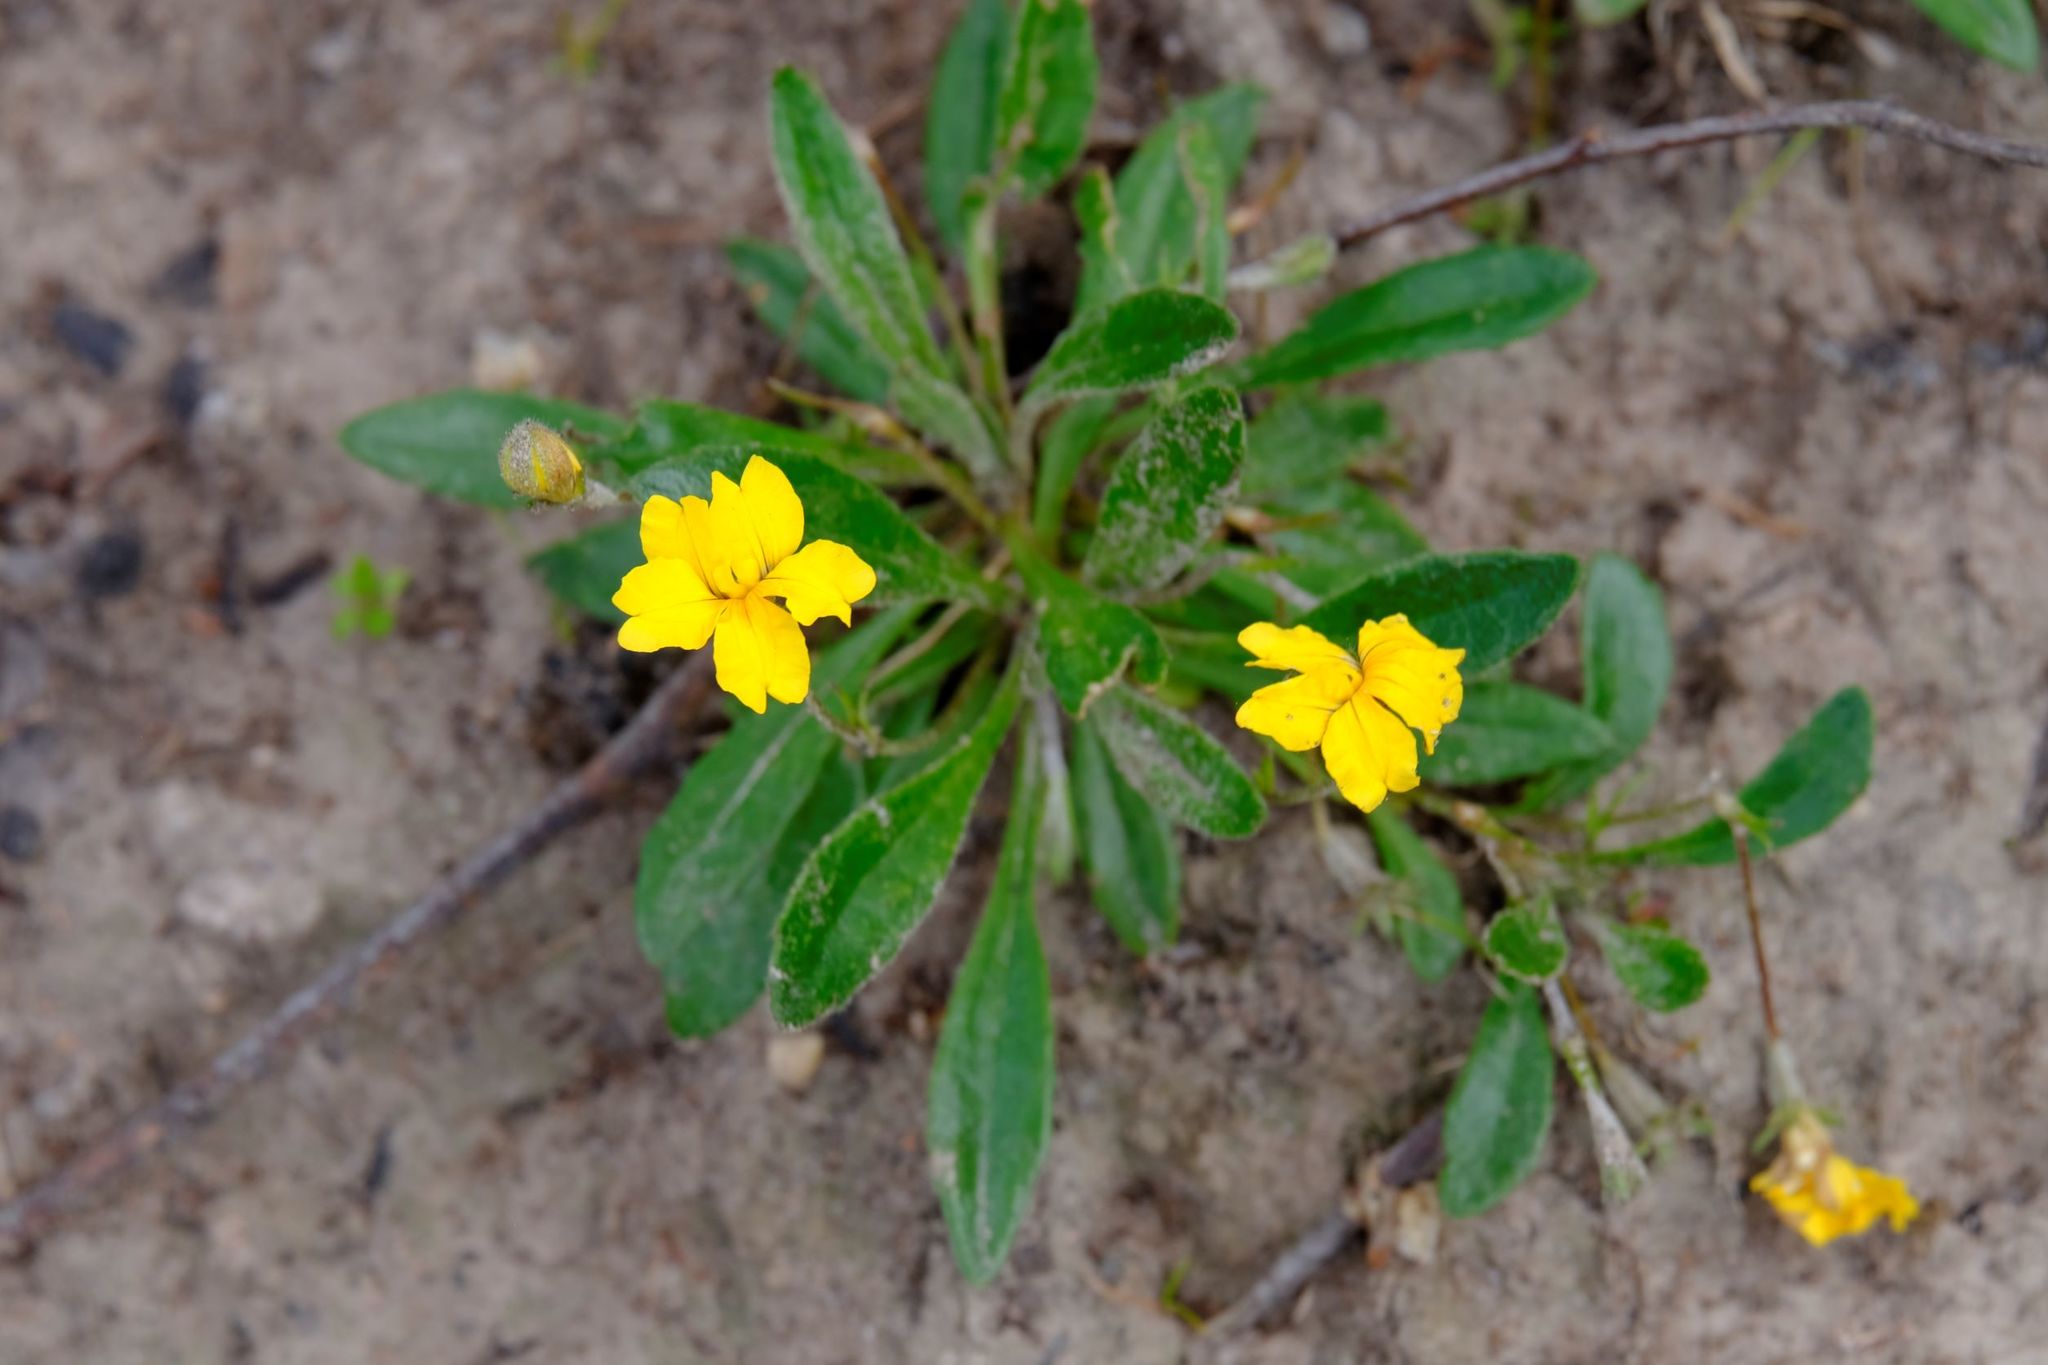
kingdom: Plantae
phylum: Tracheophyta
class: Magnoliopsida
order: Asterales
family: Goodeniaceae
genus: Goodenia
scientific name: Goodenia geniculata
